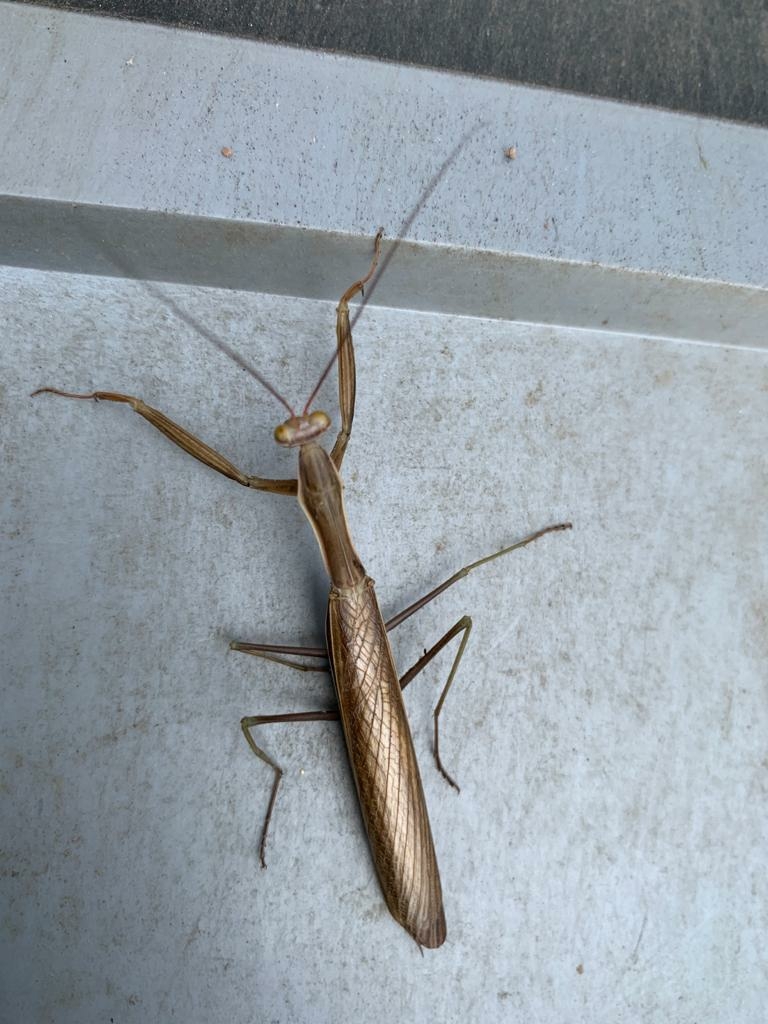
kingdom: Animalia
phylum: Arthropoda
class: Insecta
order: Mantodea
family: Mantidae
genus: Mantis
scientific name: Mantis religiosa
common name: Praying mantis
